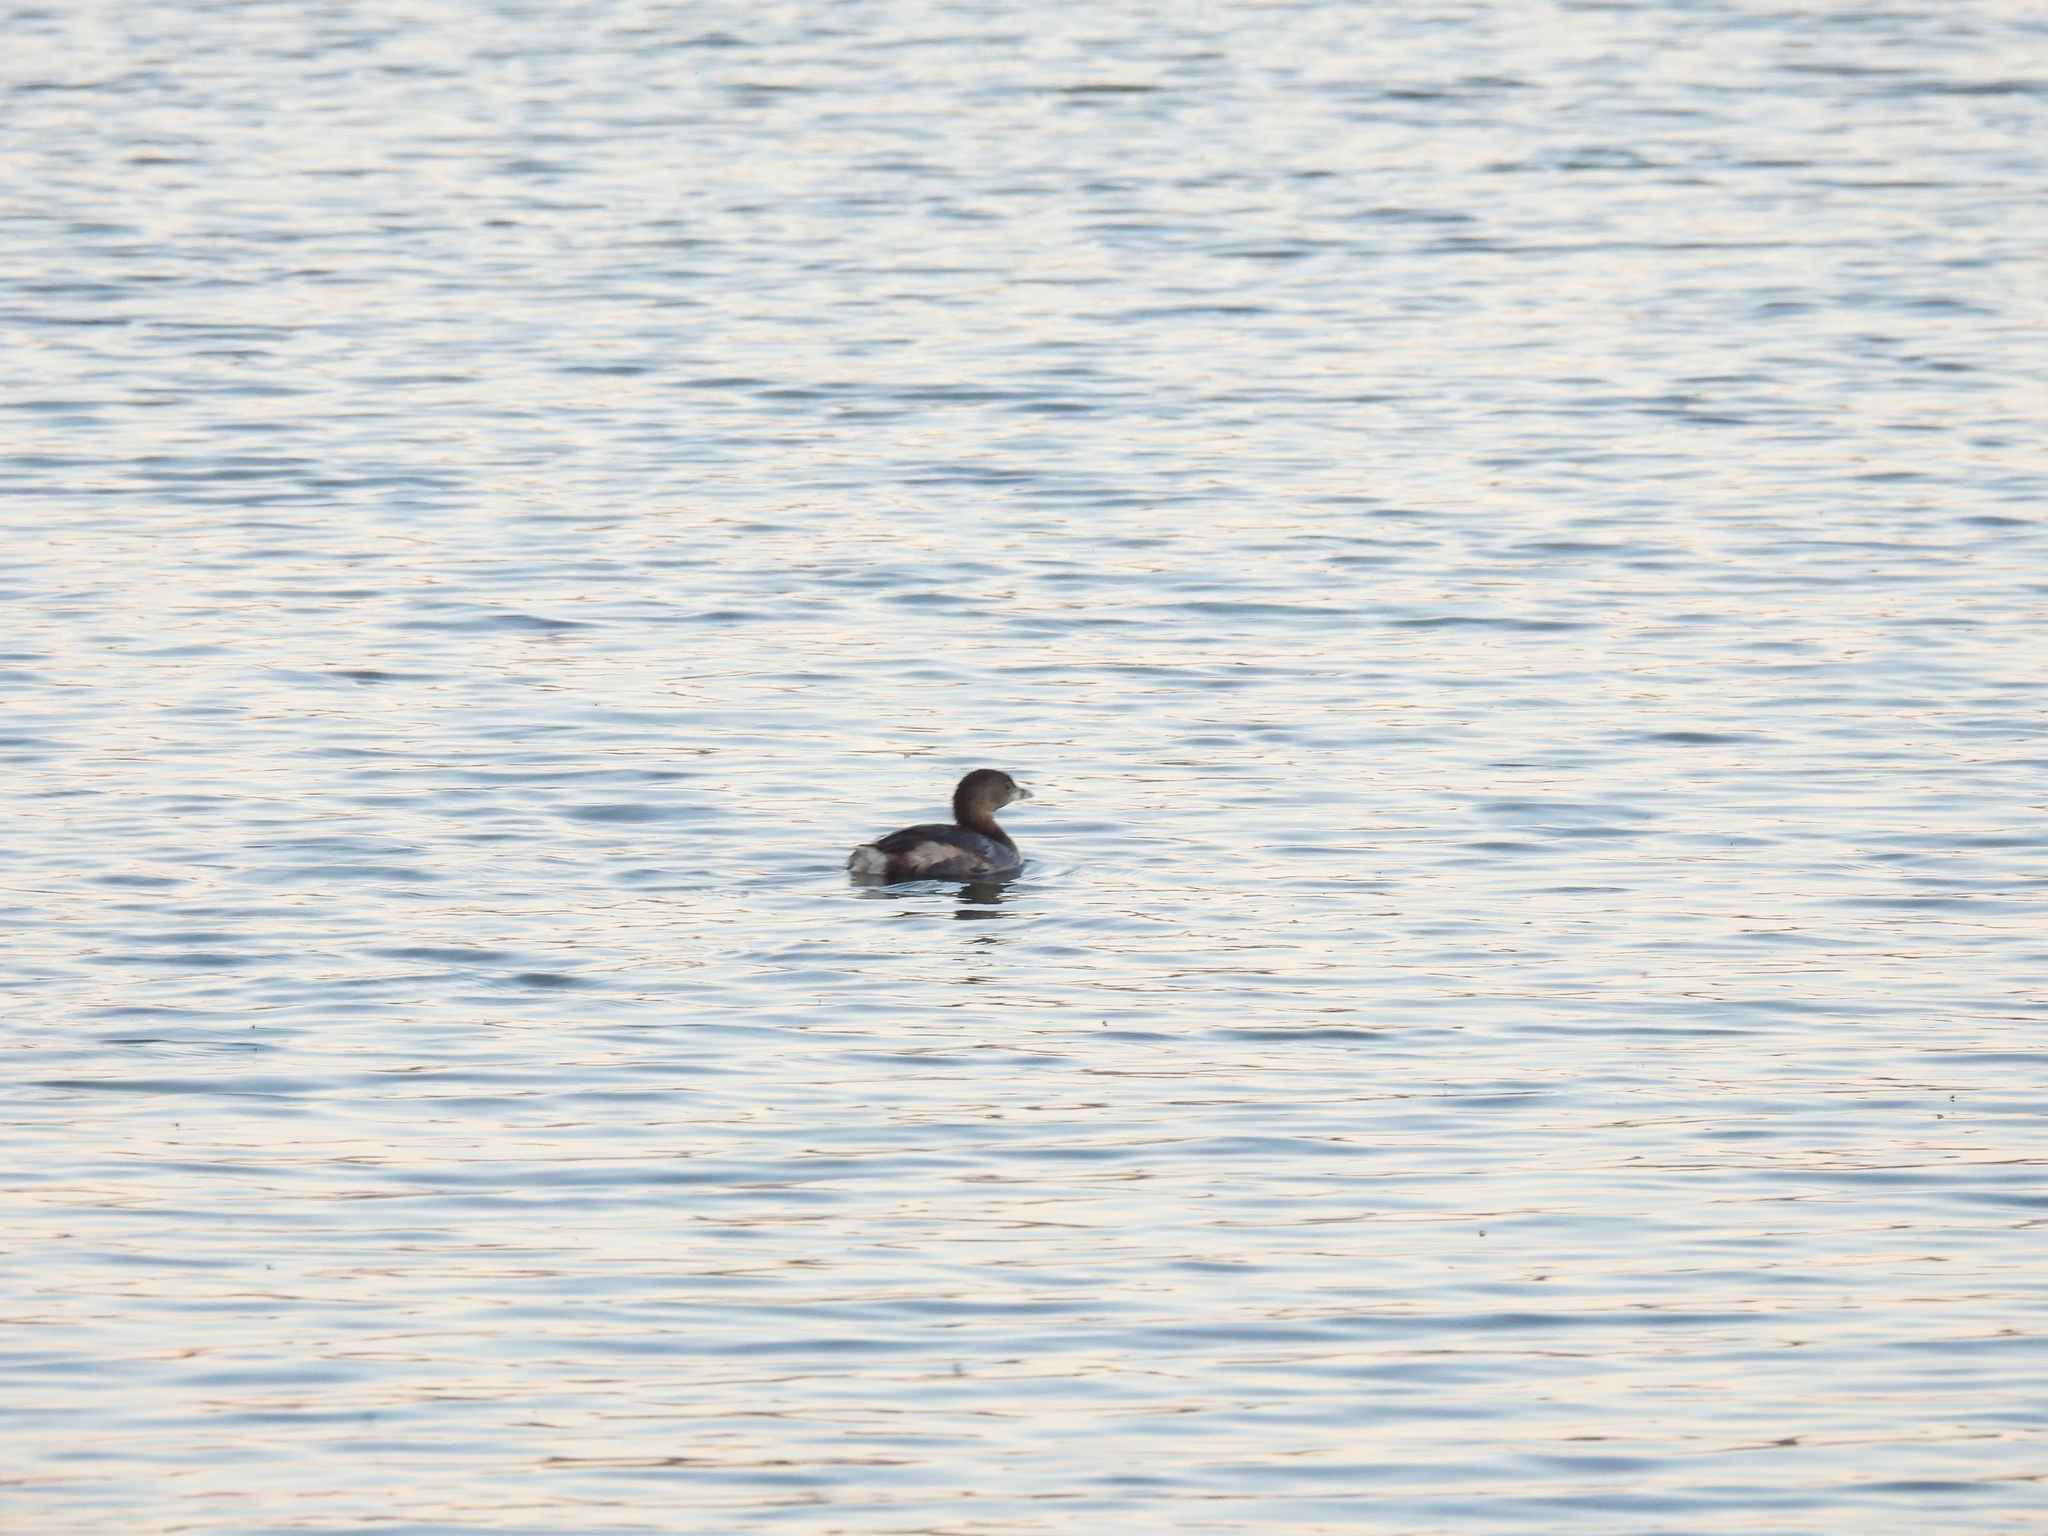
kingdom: Animalia
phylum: Chordata
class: Aves
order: Podicipediformes
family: Podicipedidae
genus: Podilymbus
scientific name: Podilymbus podiceps
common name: Pied-billed grebe
